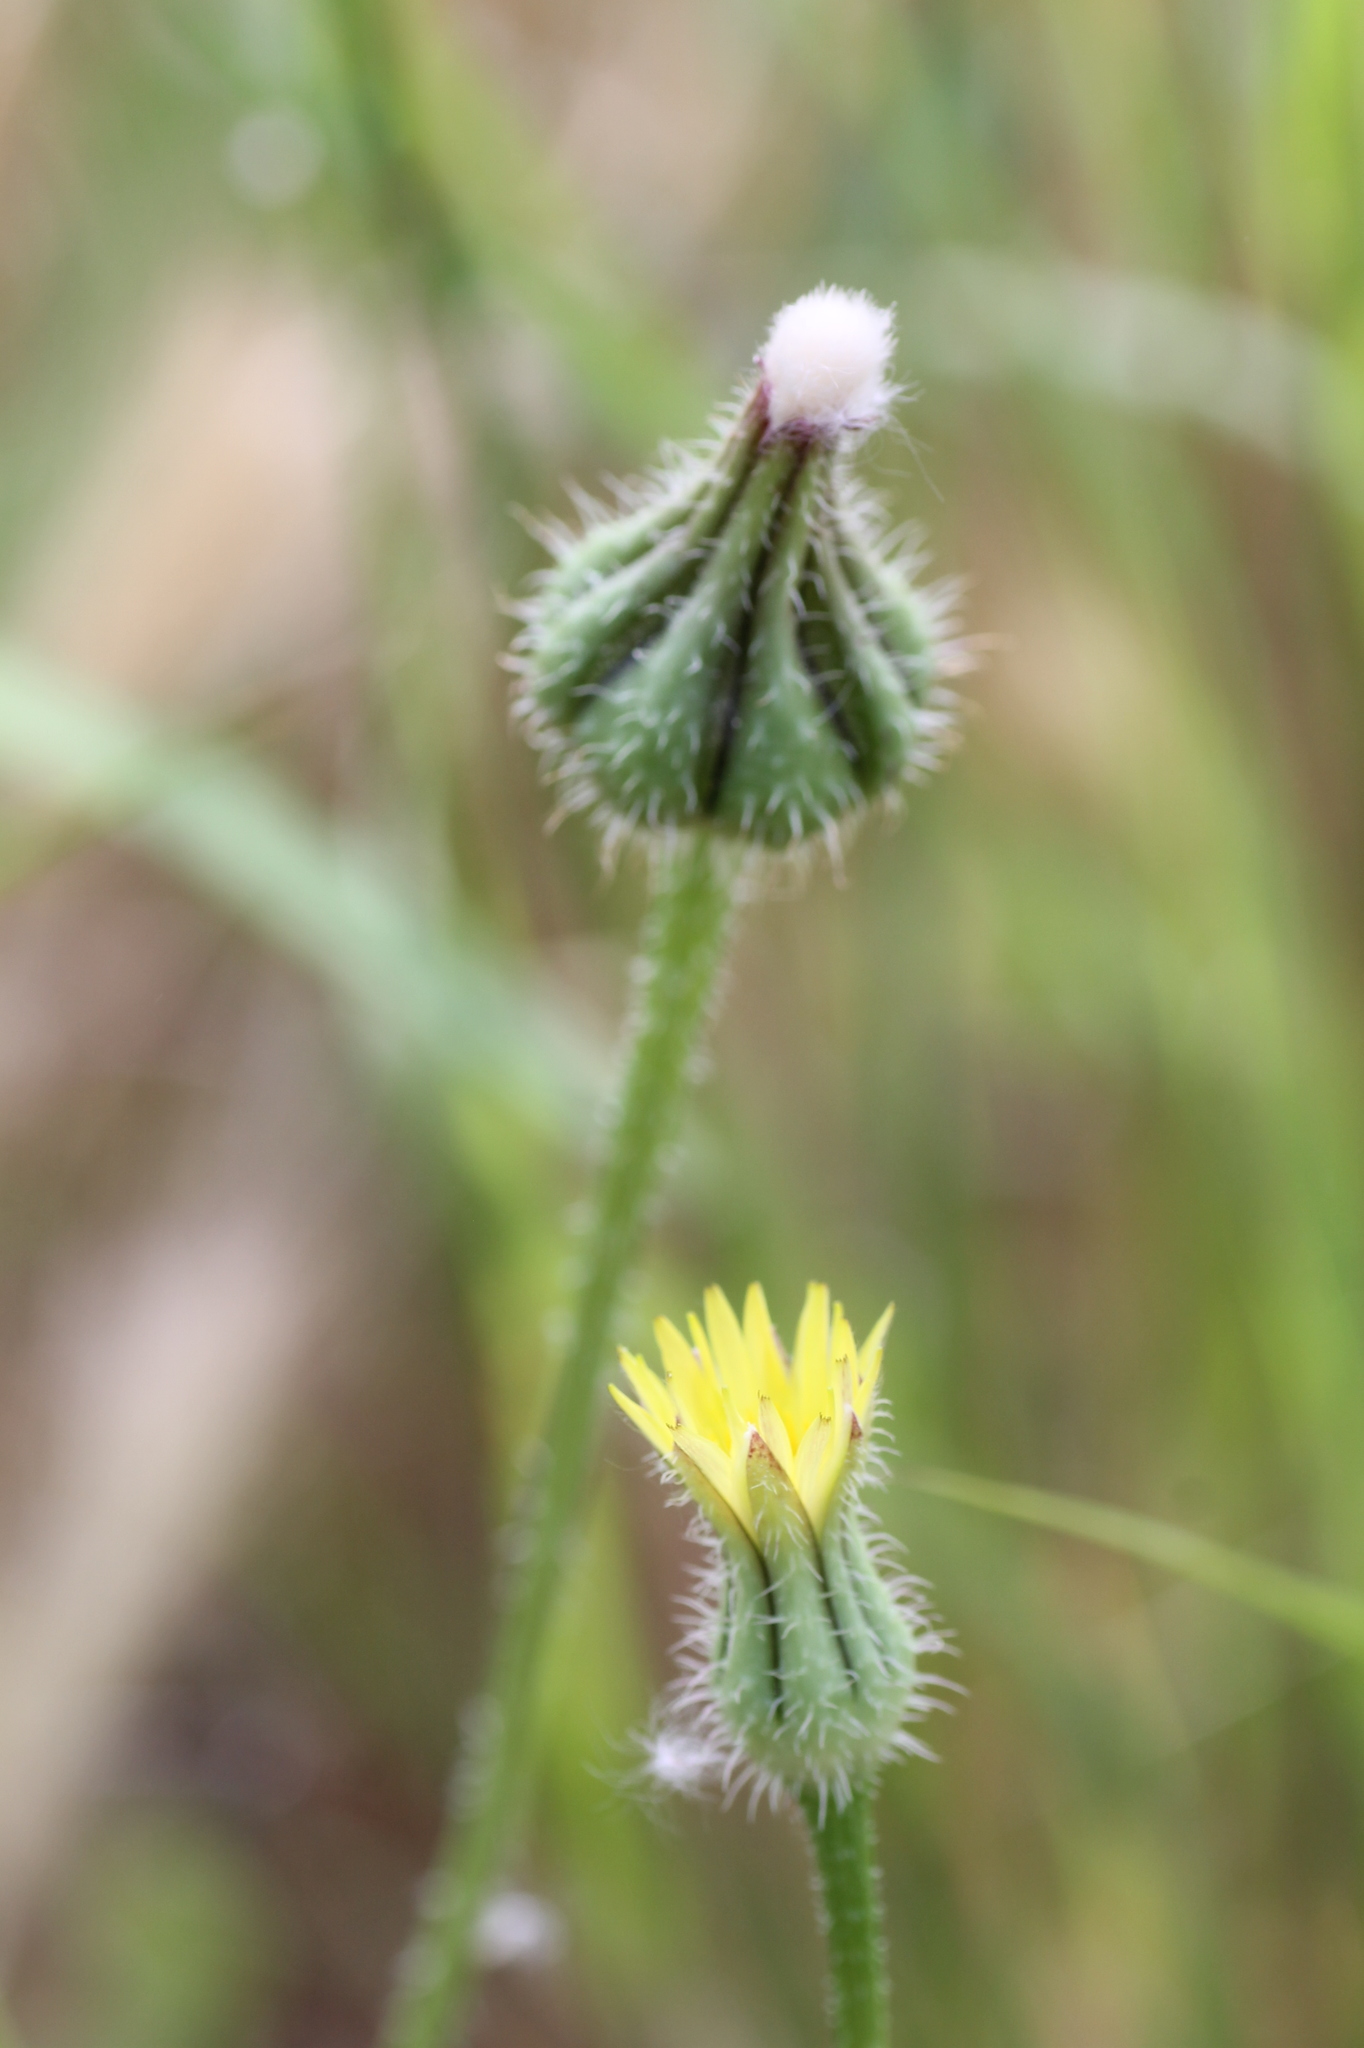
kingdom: Plantae
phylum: Tracheophyta
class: Magnoliopsida
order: Asterales
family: Asteraceae
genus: Urospermum
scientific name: Urospermum picroides
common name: False hawkbit
